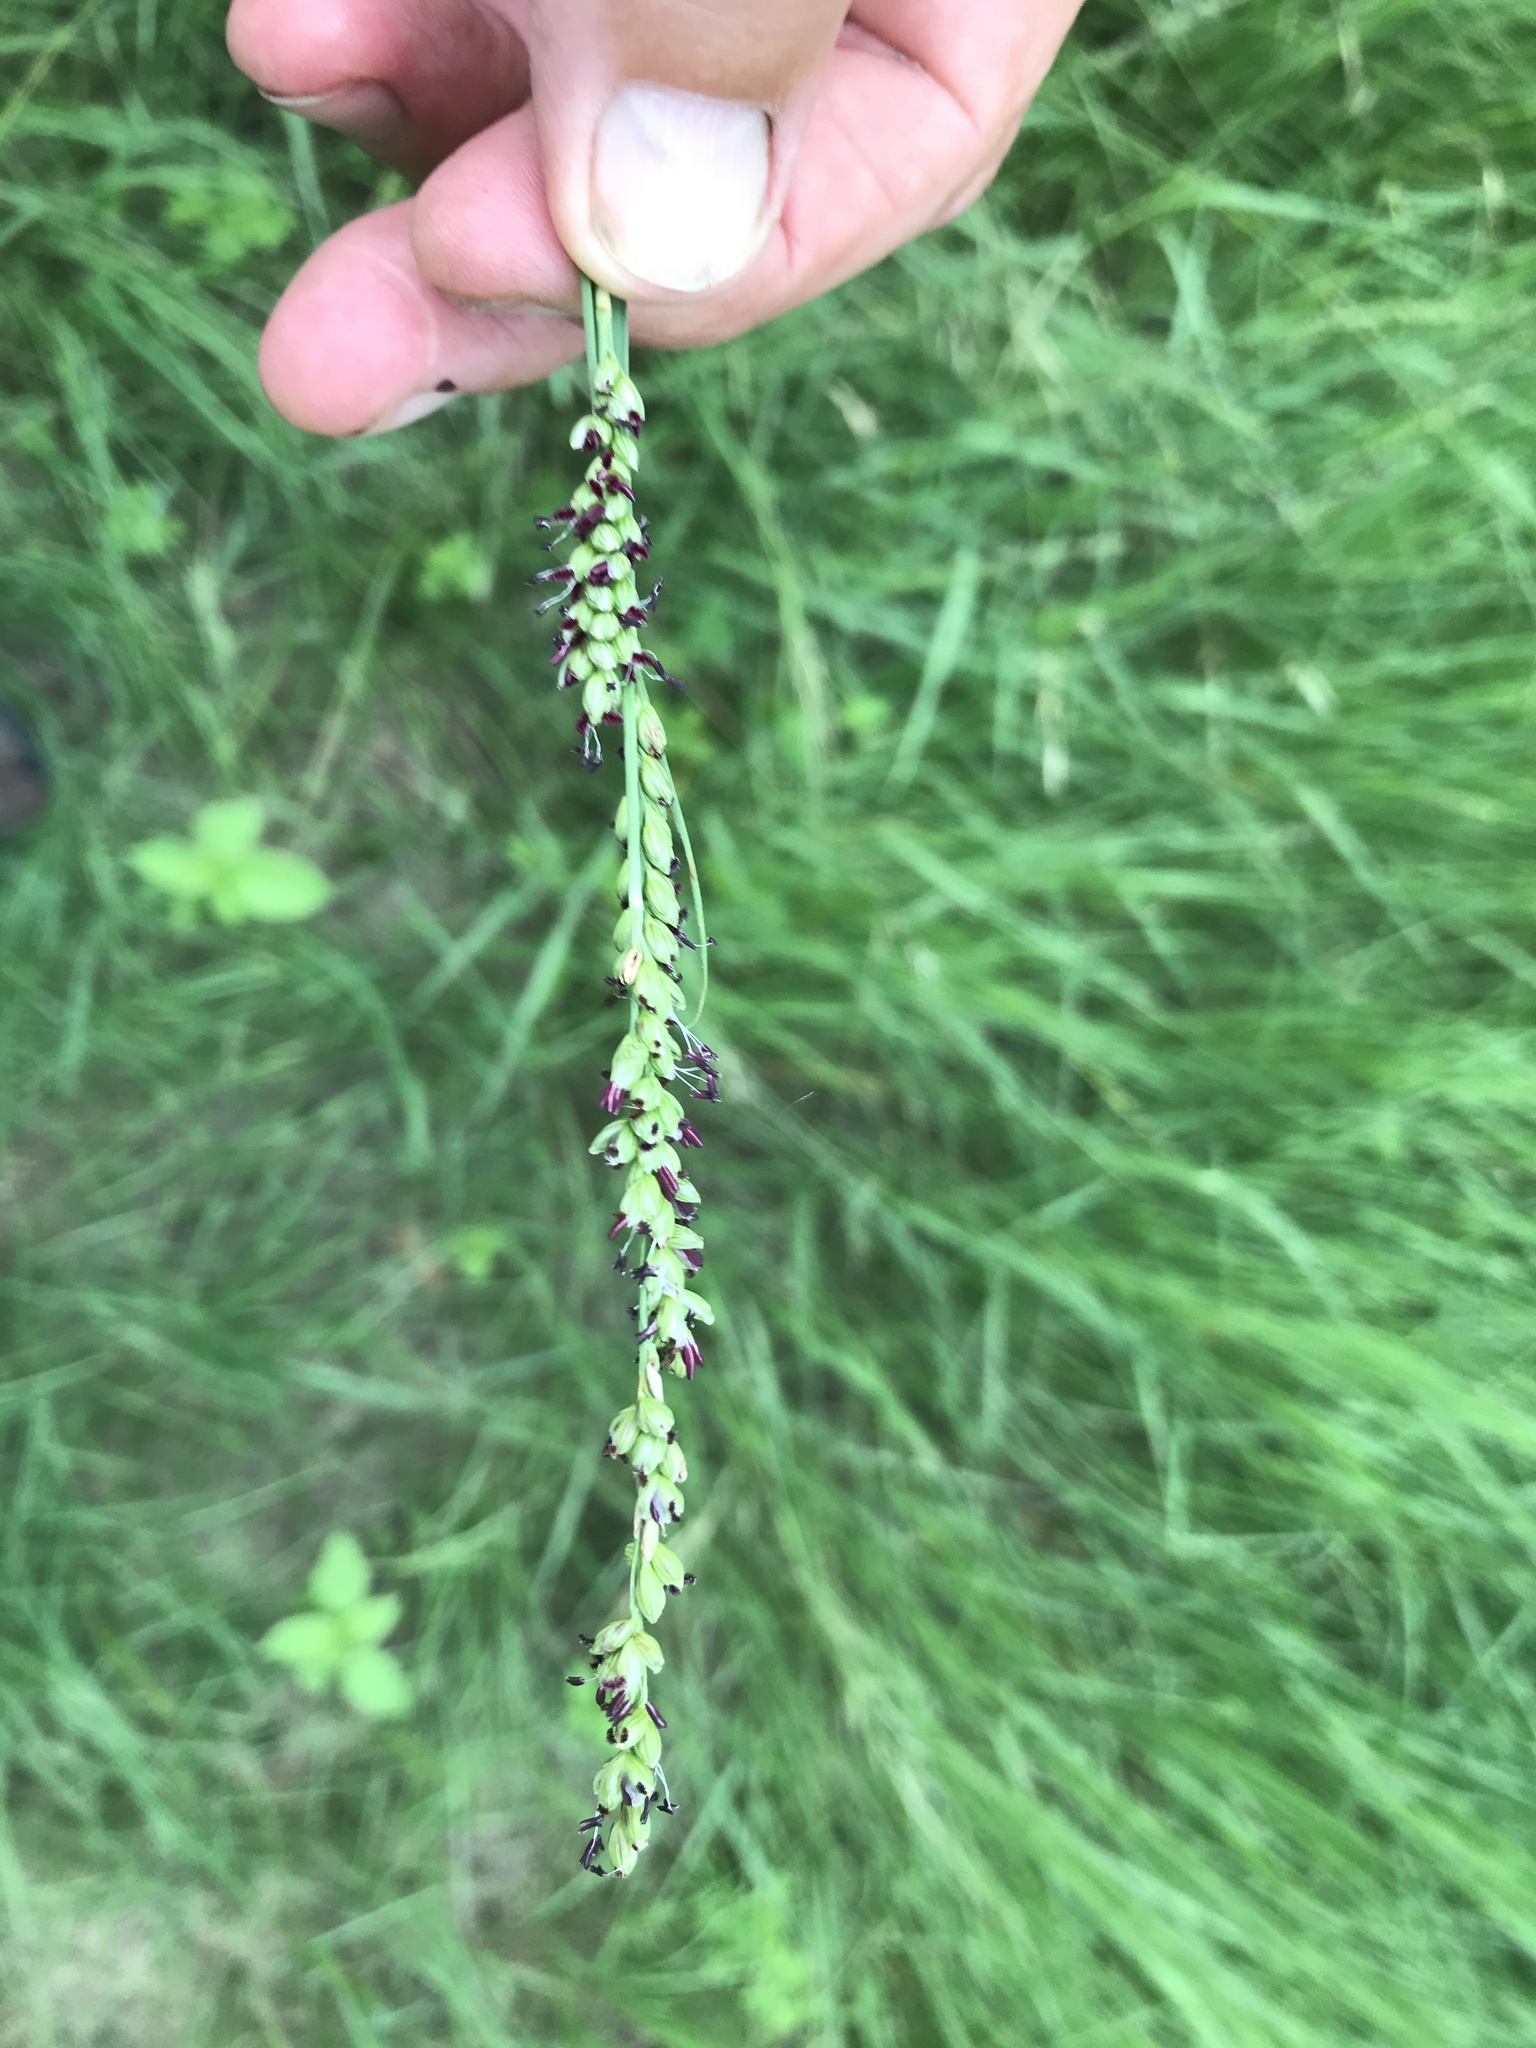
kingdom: Plantae
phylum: Tracheophyta
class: Liliopsida
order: Poales
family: Poaceae
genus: Hopia
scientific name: Hopia obtusa
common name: Vine-mesquite
